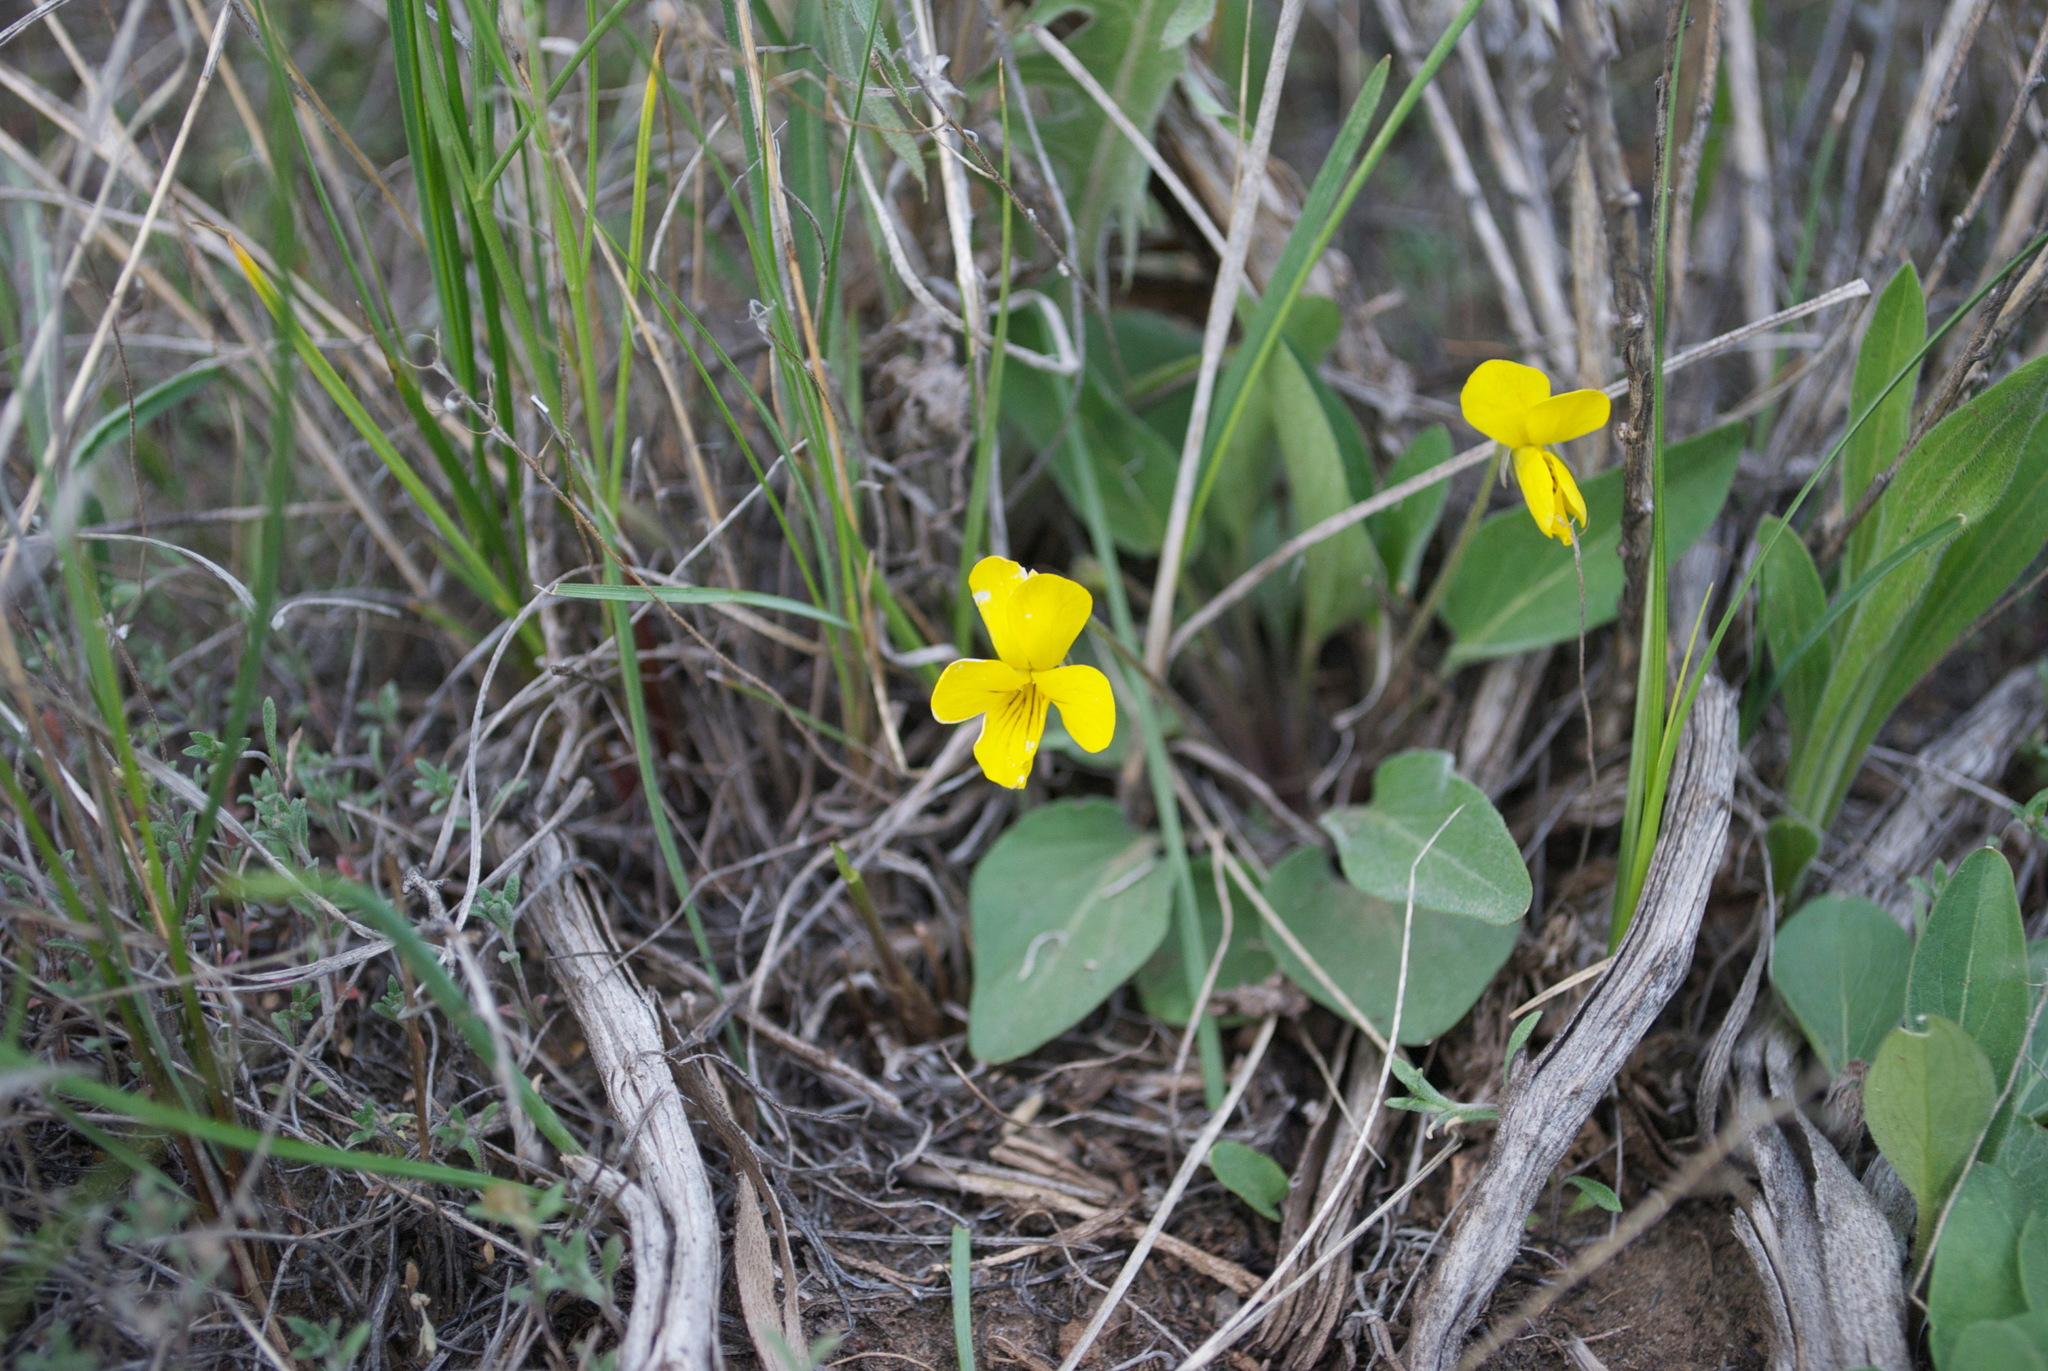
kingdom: Plantae
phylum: Tracheophyta
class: Magnoliopsida
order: Malpighiales
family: Violaceae
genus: Viola
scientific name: Viola nuttallii
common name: Yellow prairie violet
